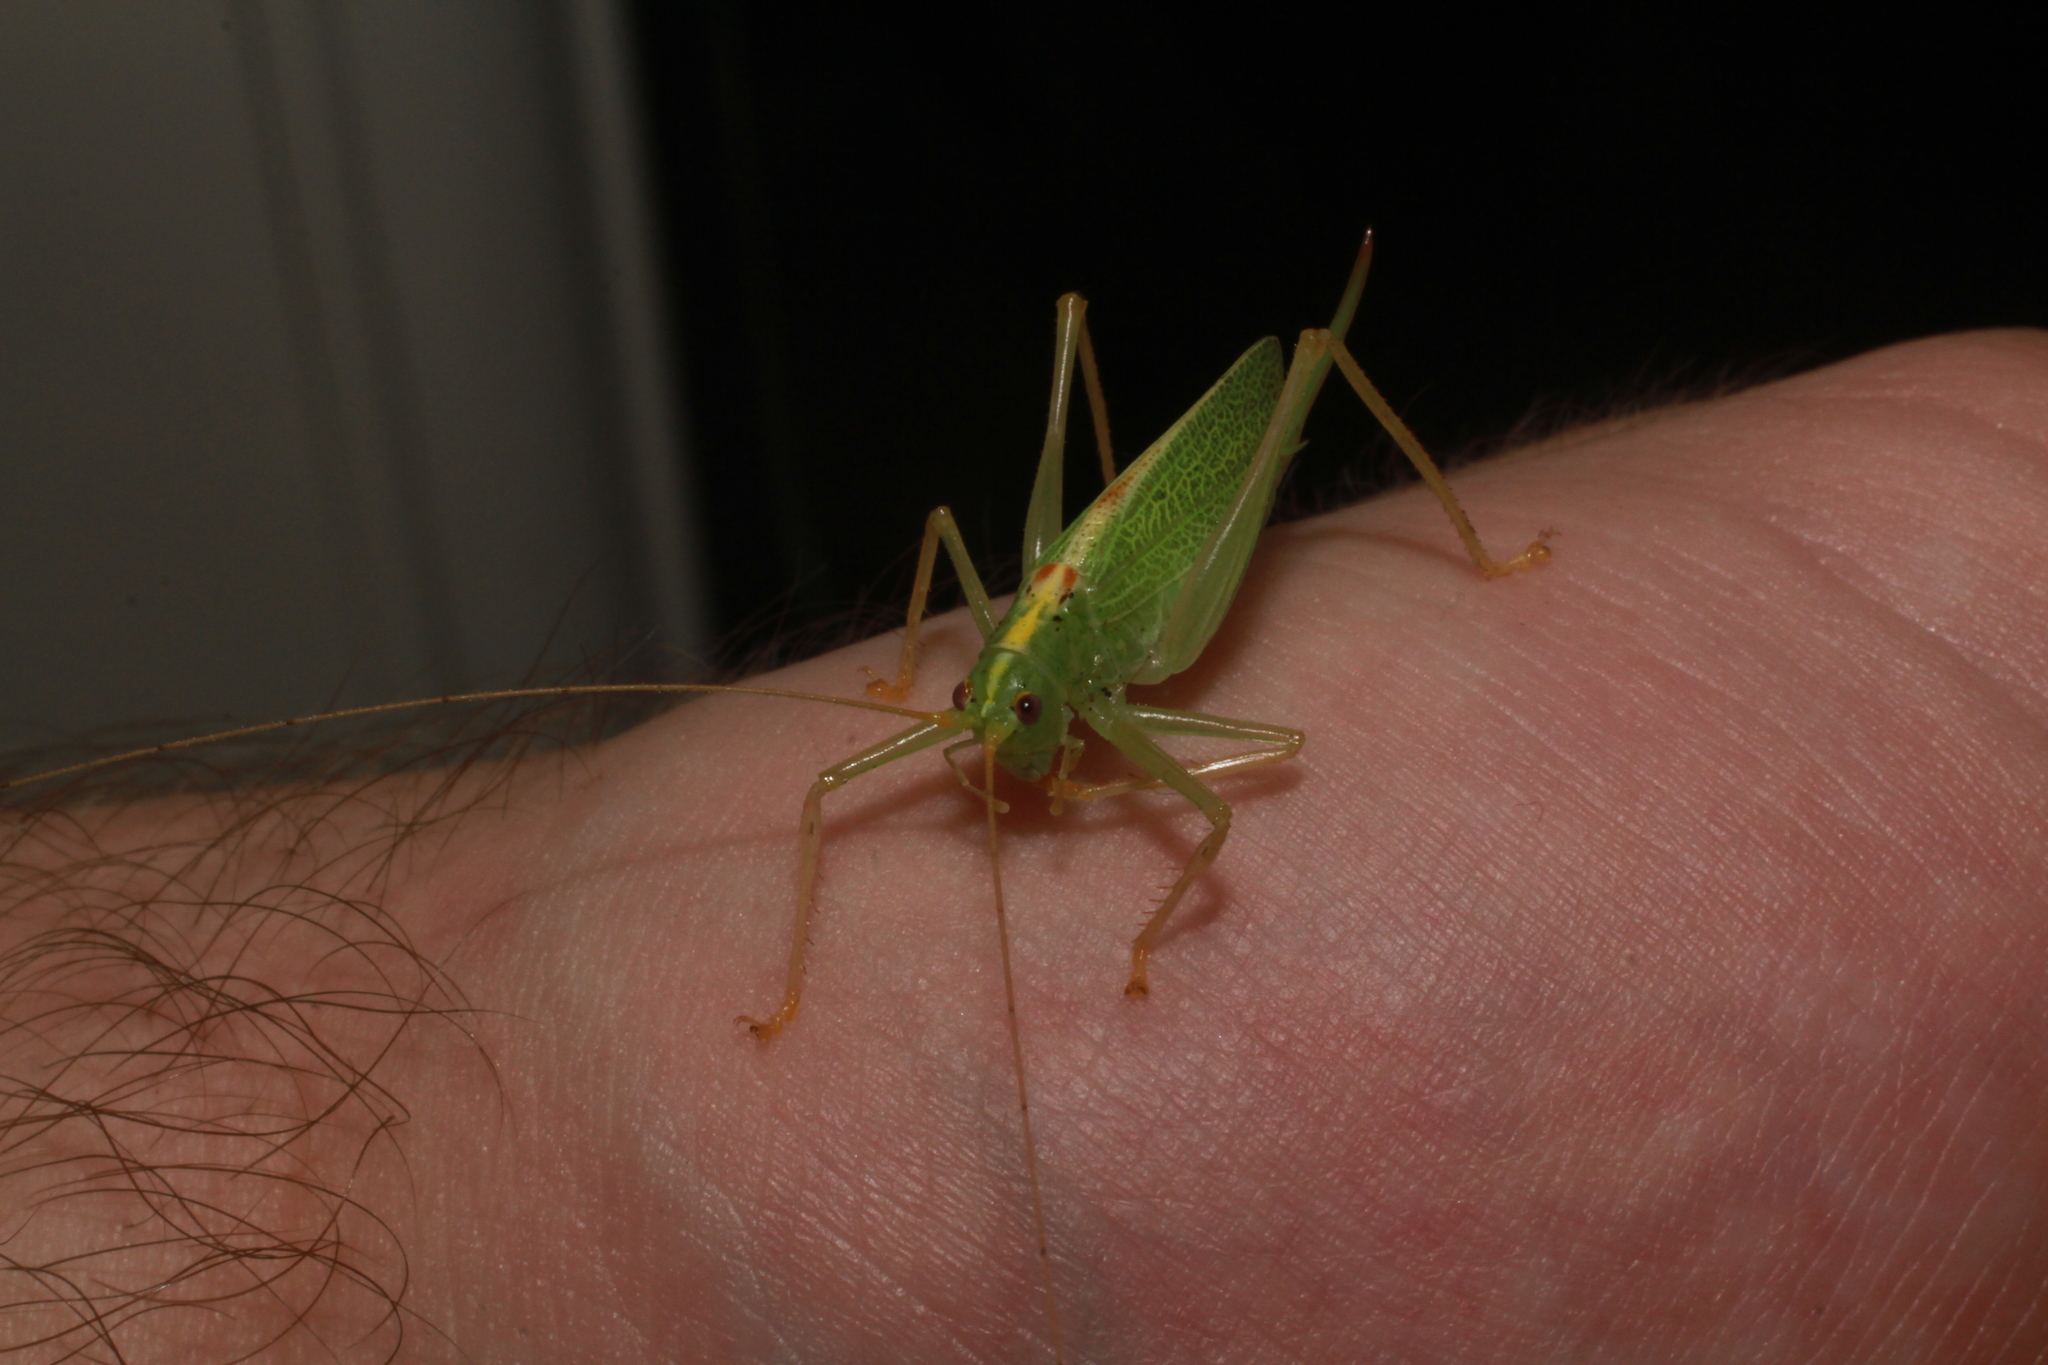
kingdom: Animalia
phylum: Arthropoda
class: Insecta
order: Orthoptera
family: Tettigoniidae
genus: Meconema
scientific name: Meconema thalassinum
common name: Oak bush-cricket
